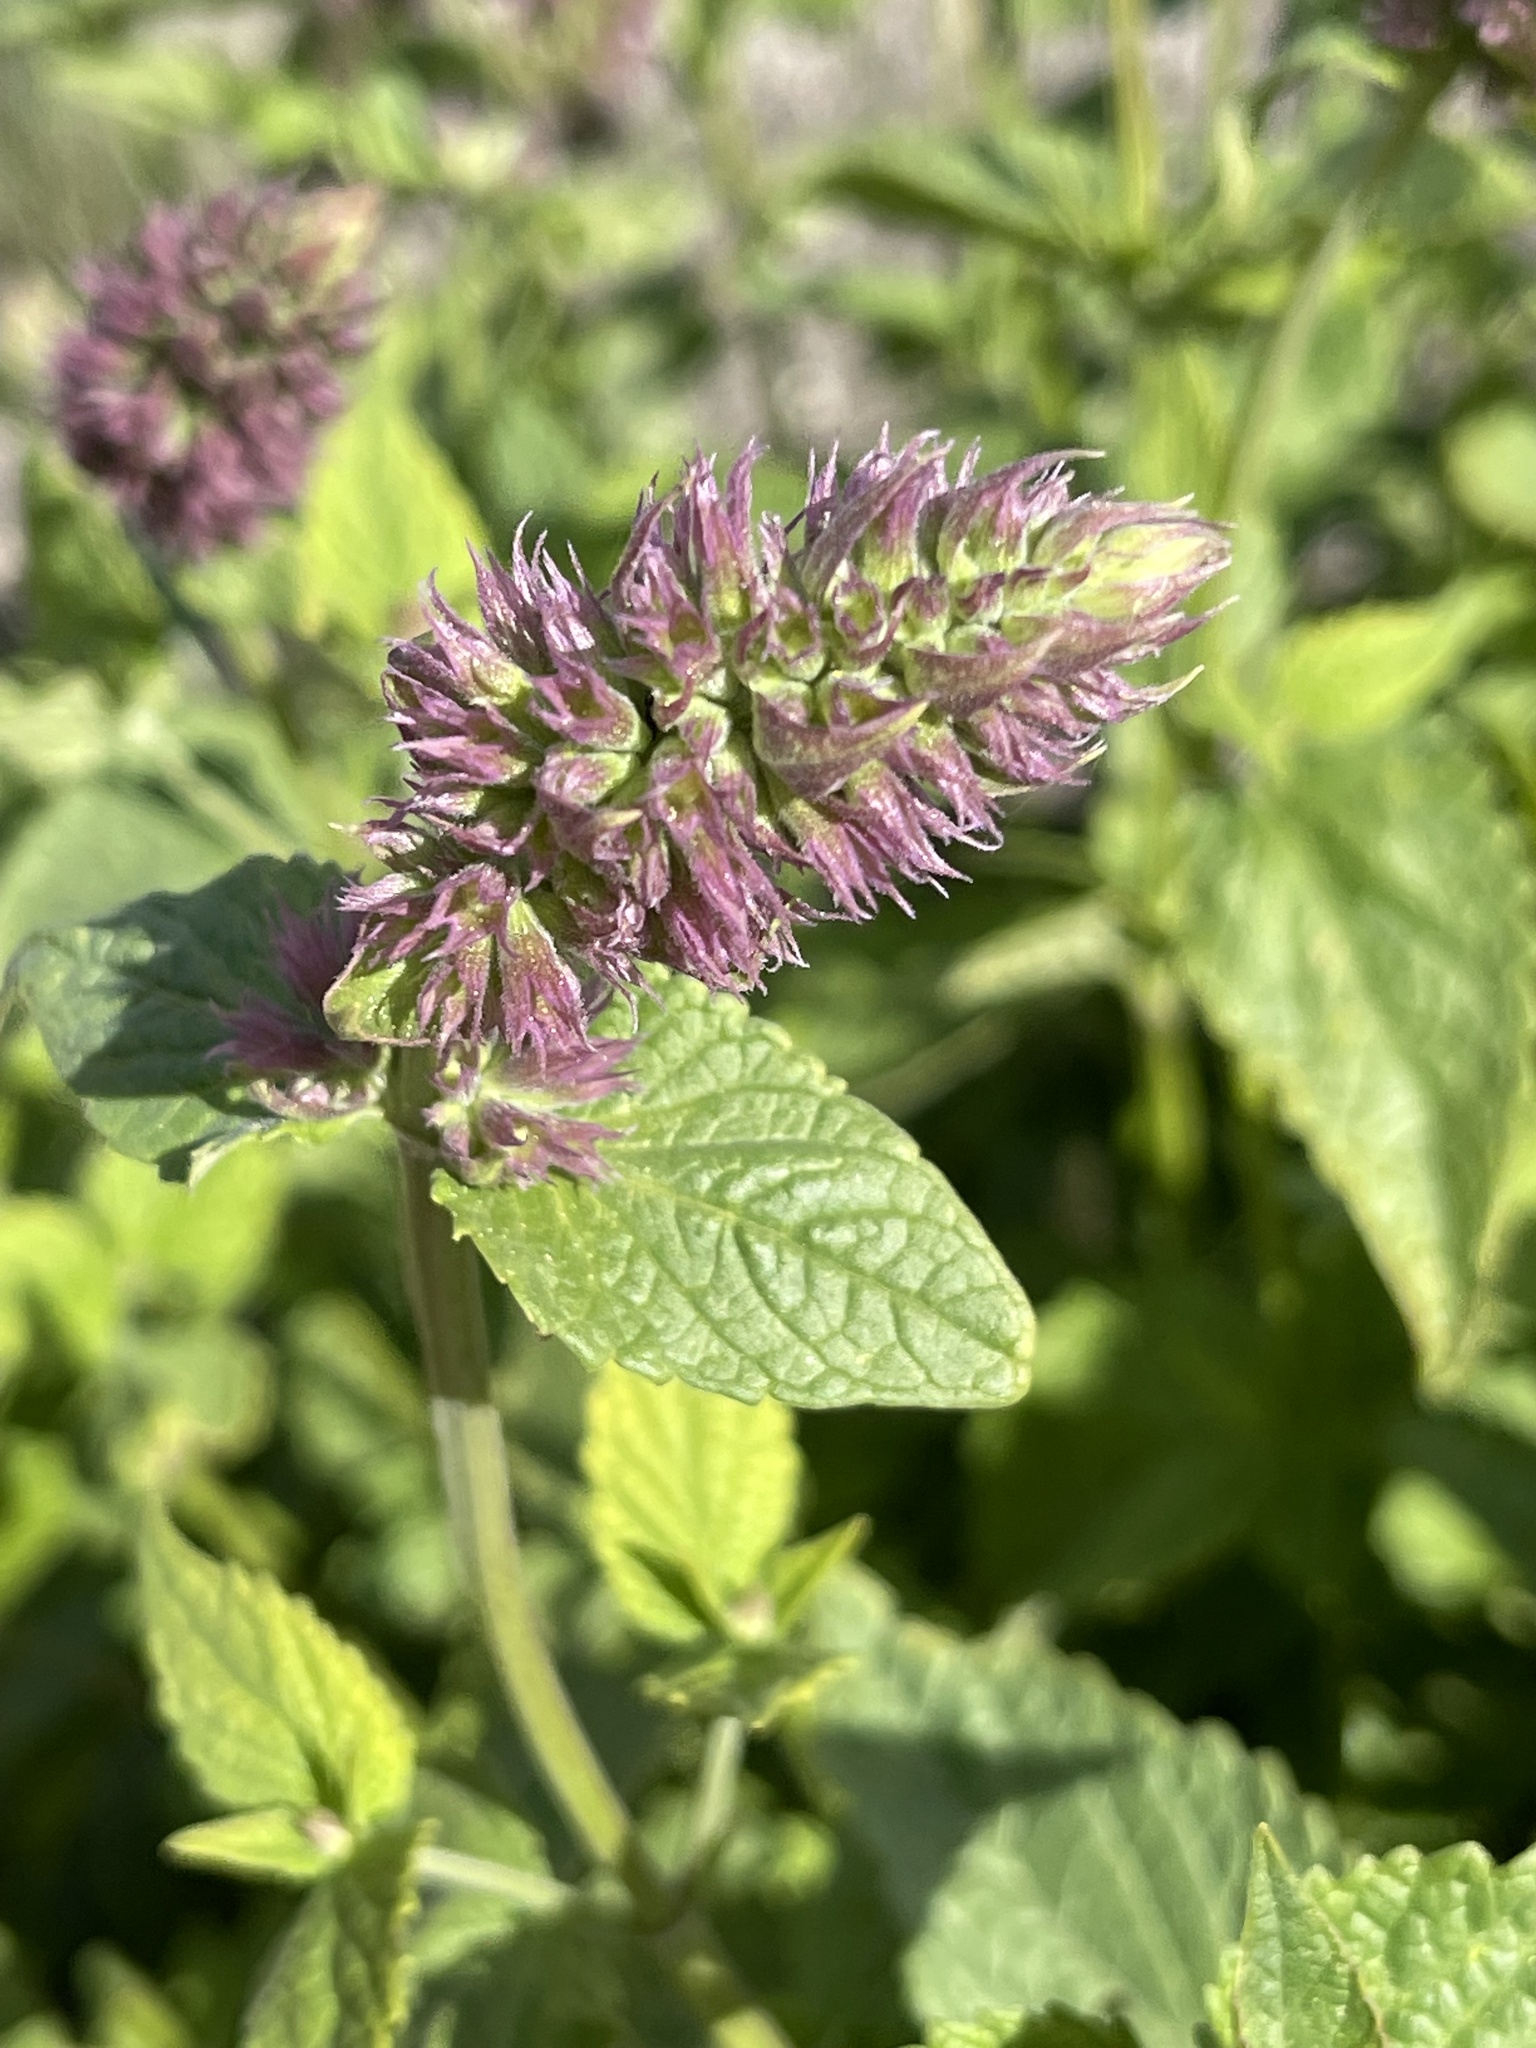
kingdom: Plantae
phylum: Tracheophyta
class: Magnoliopsida
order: Lamiales
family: Lamiaceae
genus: Agastache
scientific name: Agastache urticifolia
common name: Horsemint giant hyssop
